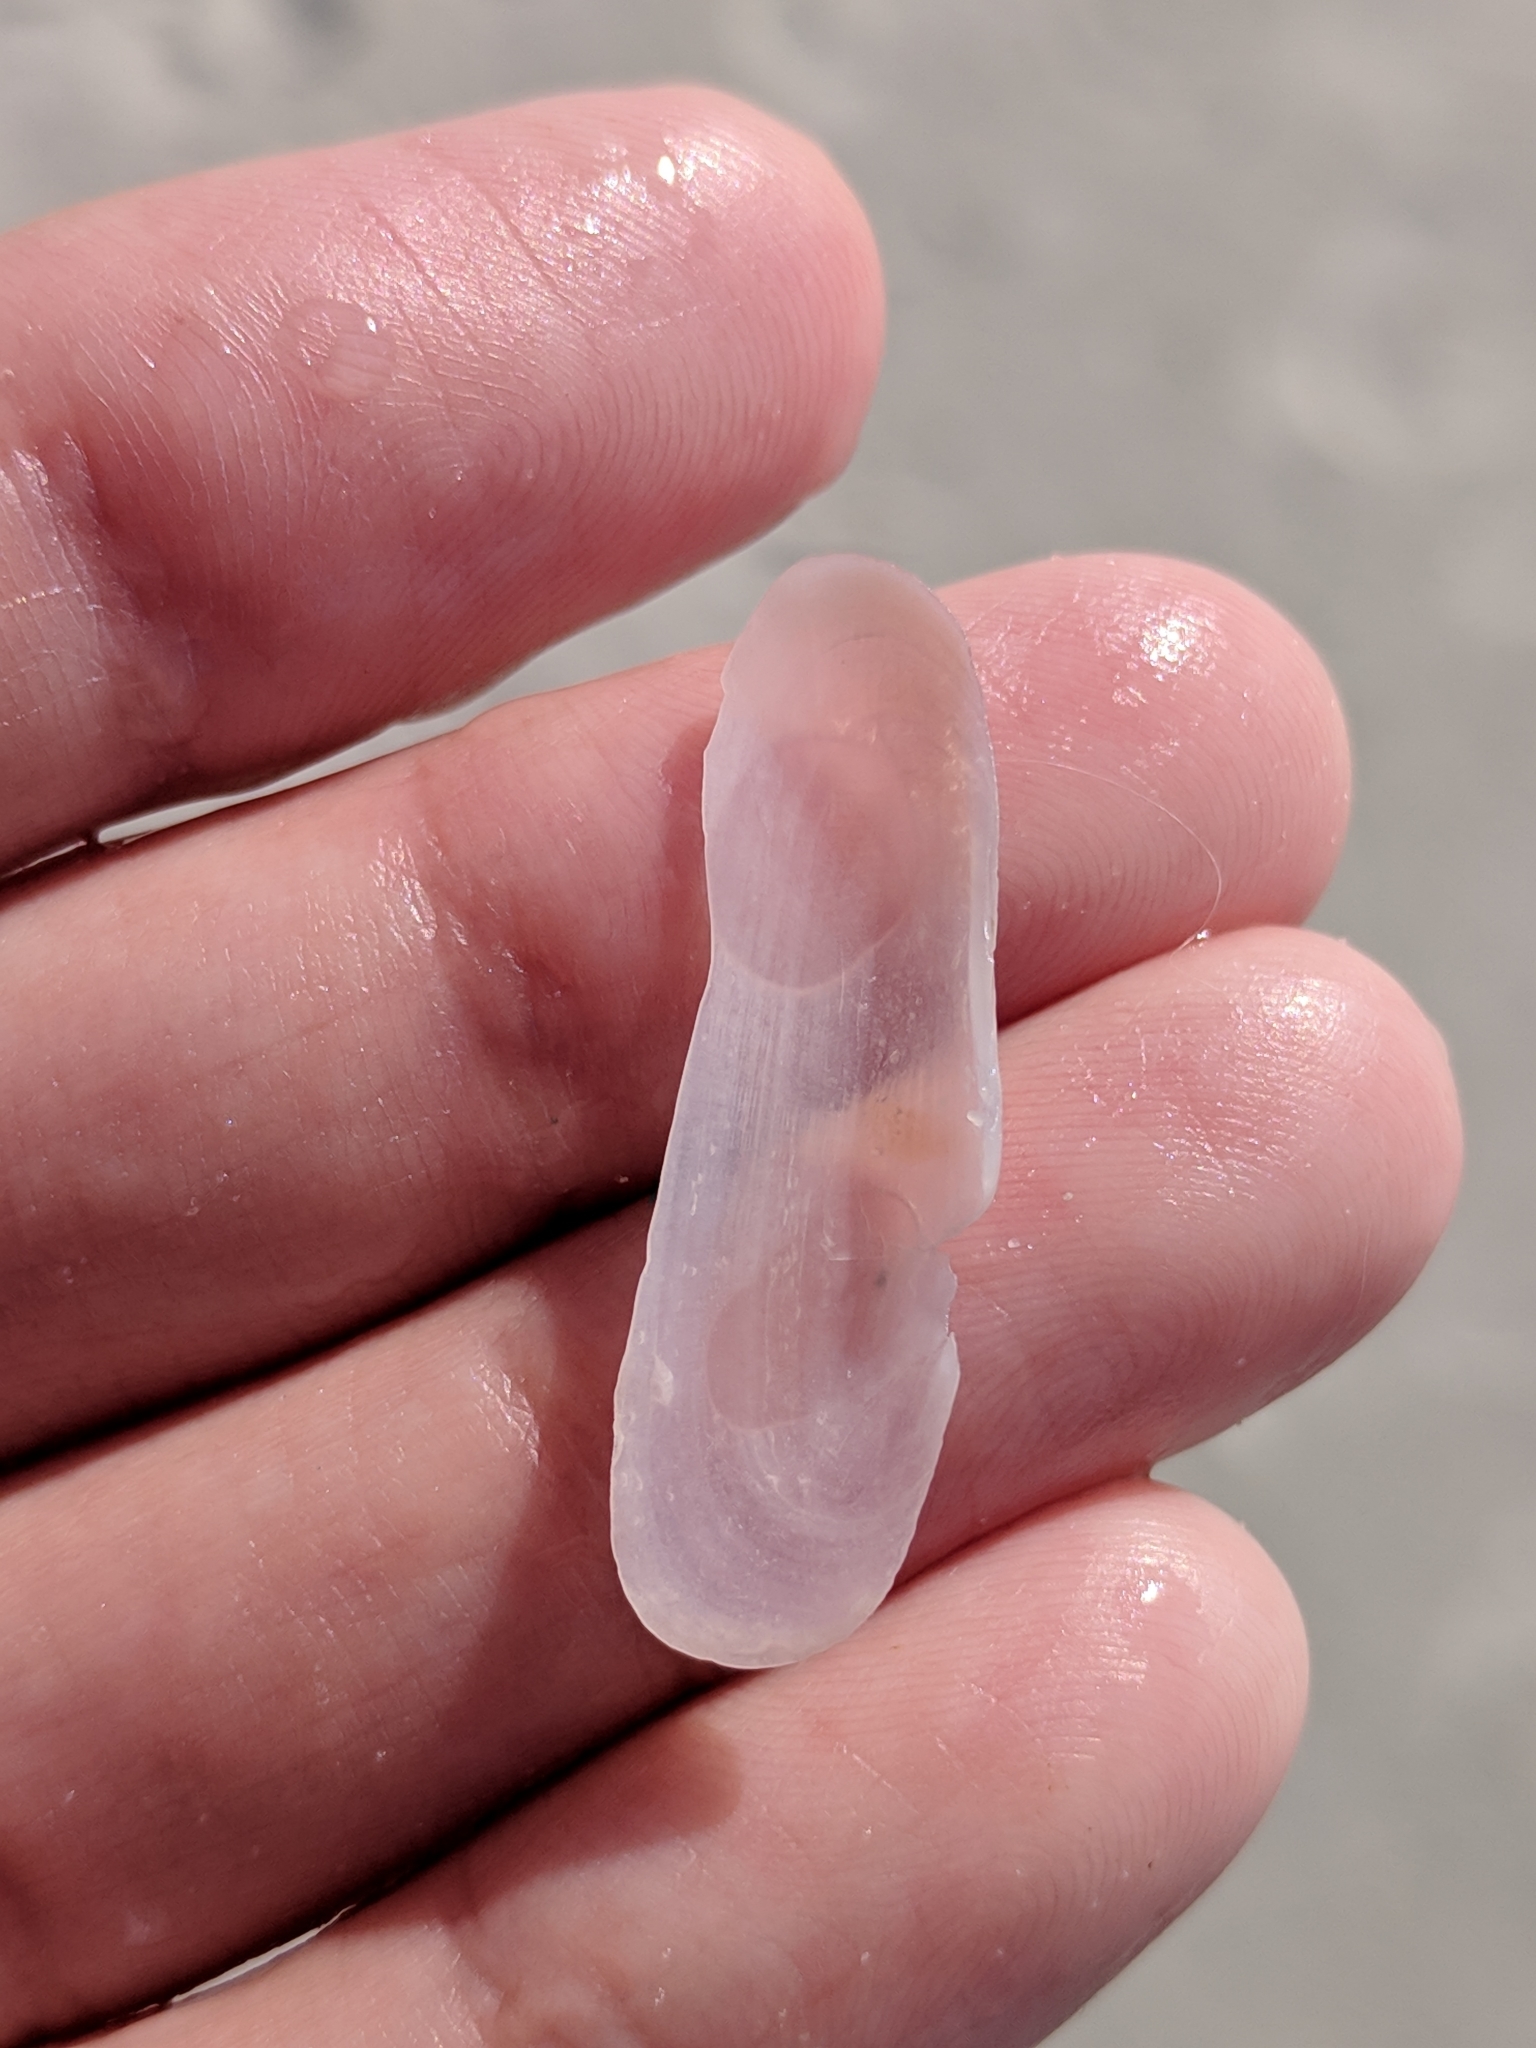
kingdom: Animalia
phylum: Mollusca
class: Bivalvia
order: Cardiida
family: Solecurtidae
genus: Tagelus
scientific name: Tagelus divisus
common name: Purplish tagelus
